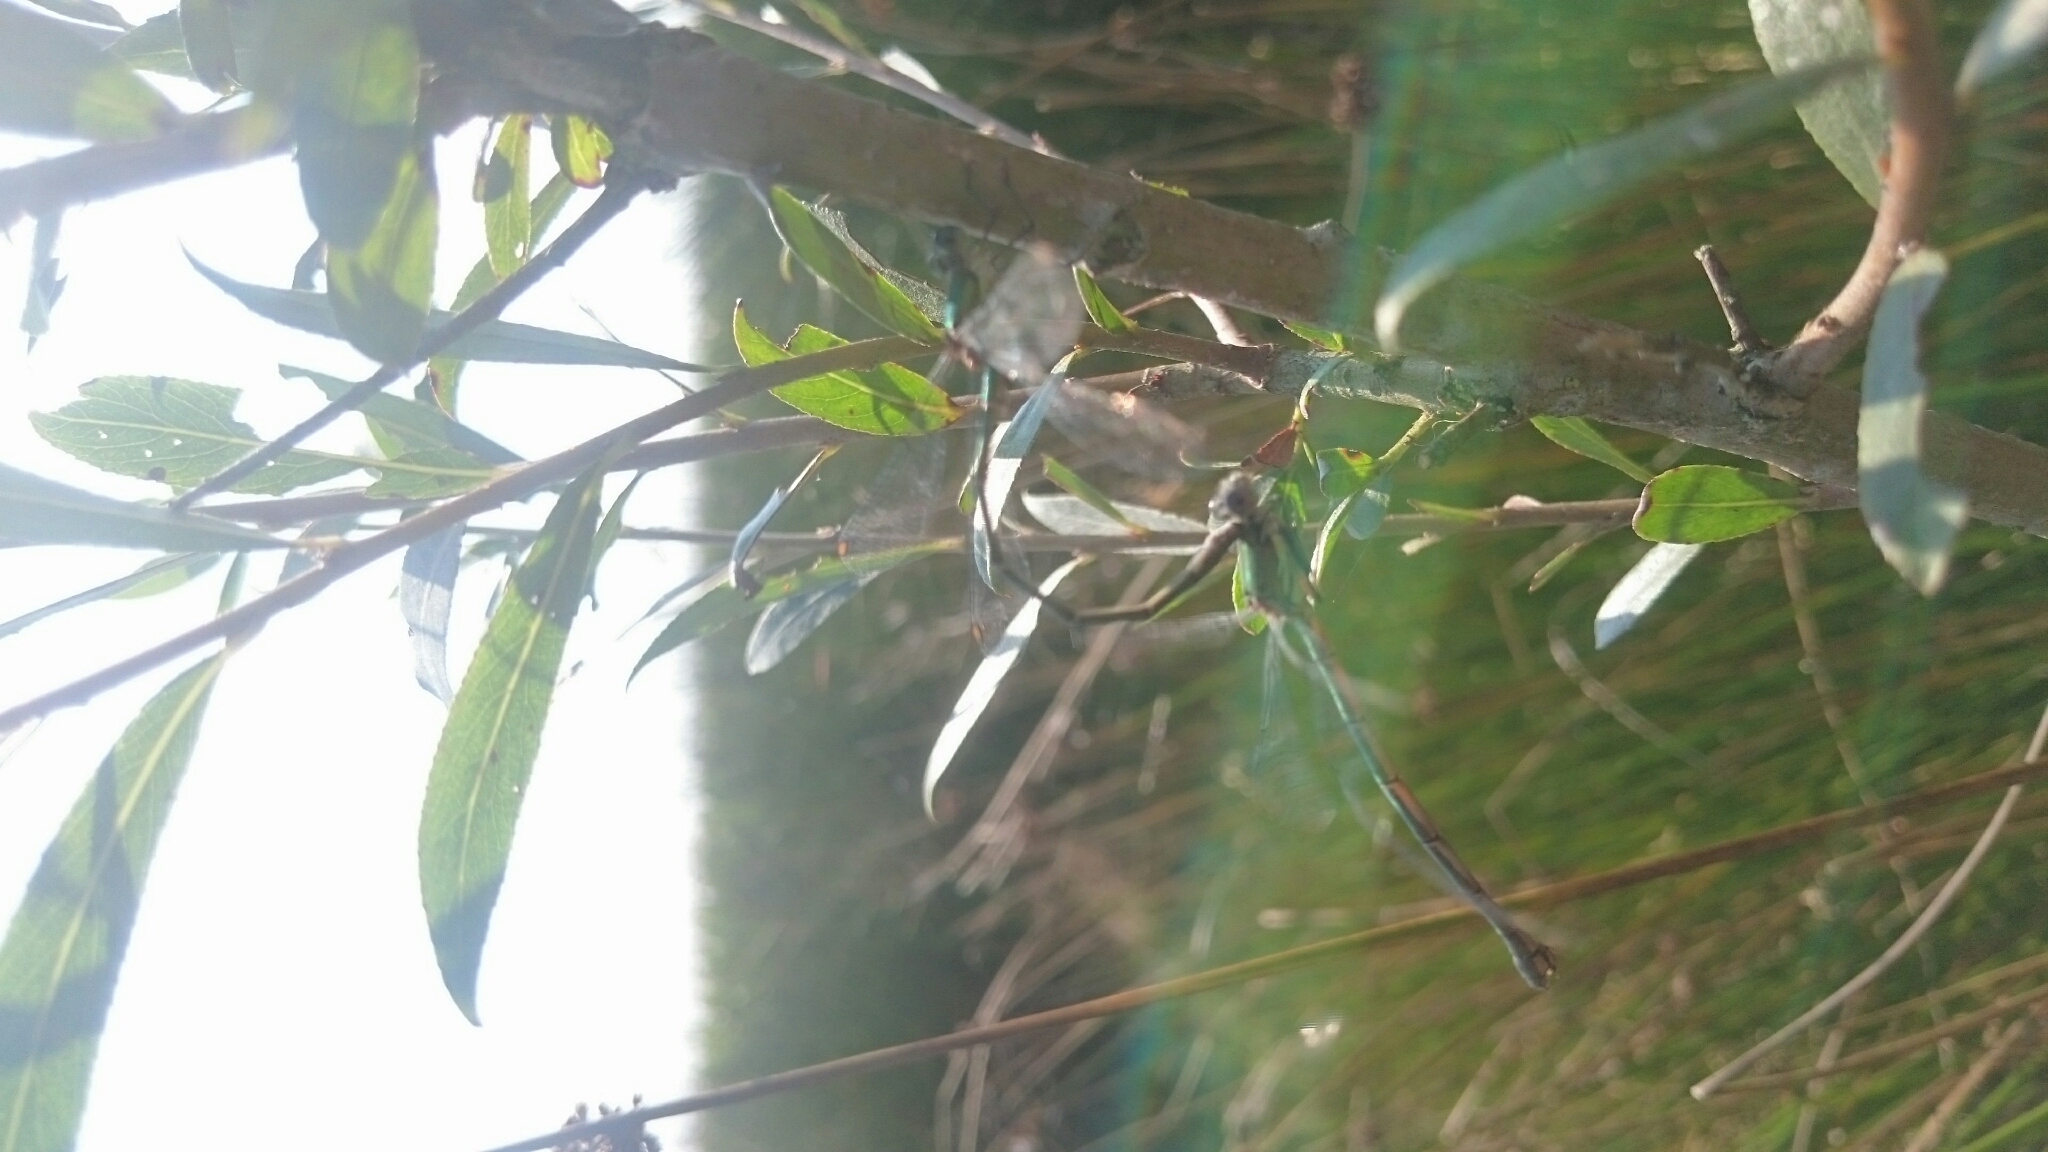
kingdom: Animalia
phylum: Arthropoda
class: Insecta
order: Odonata
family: Lestidae
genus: Chalcolestes
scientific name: Chalcolestes viridis
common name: Green emerald damselfly
